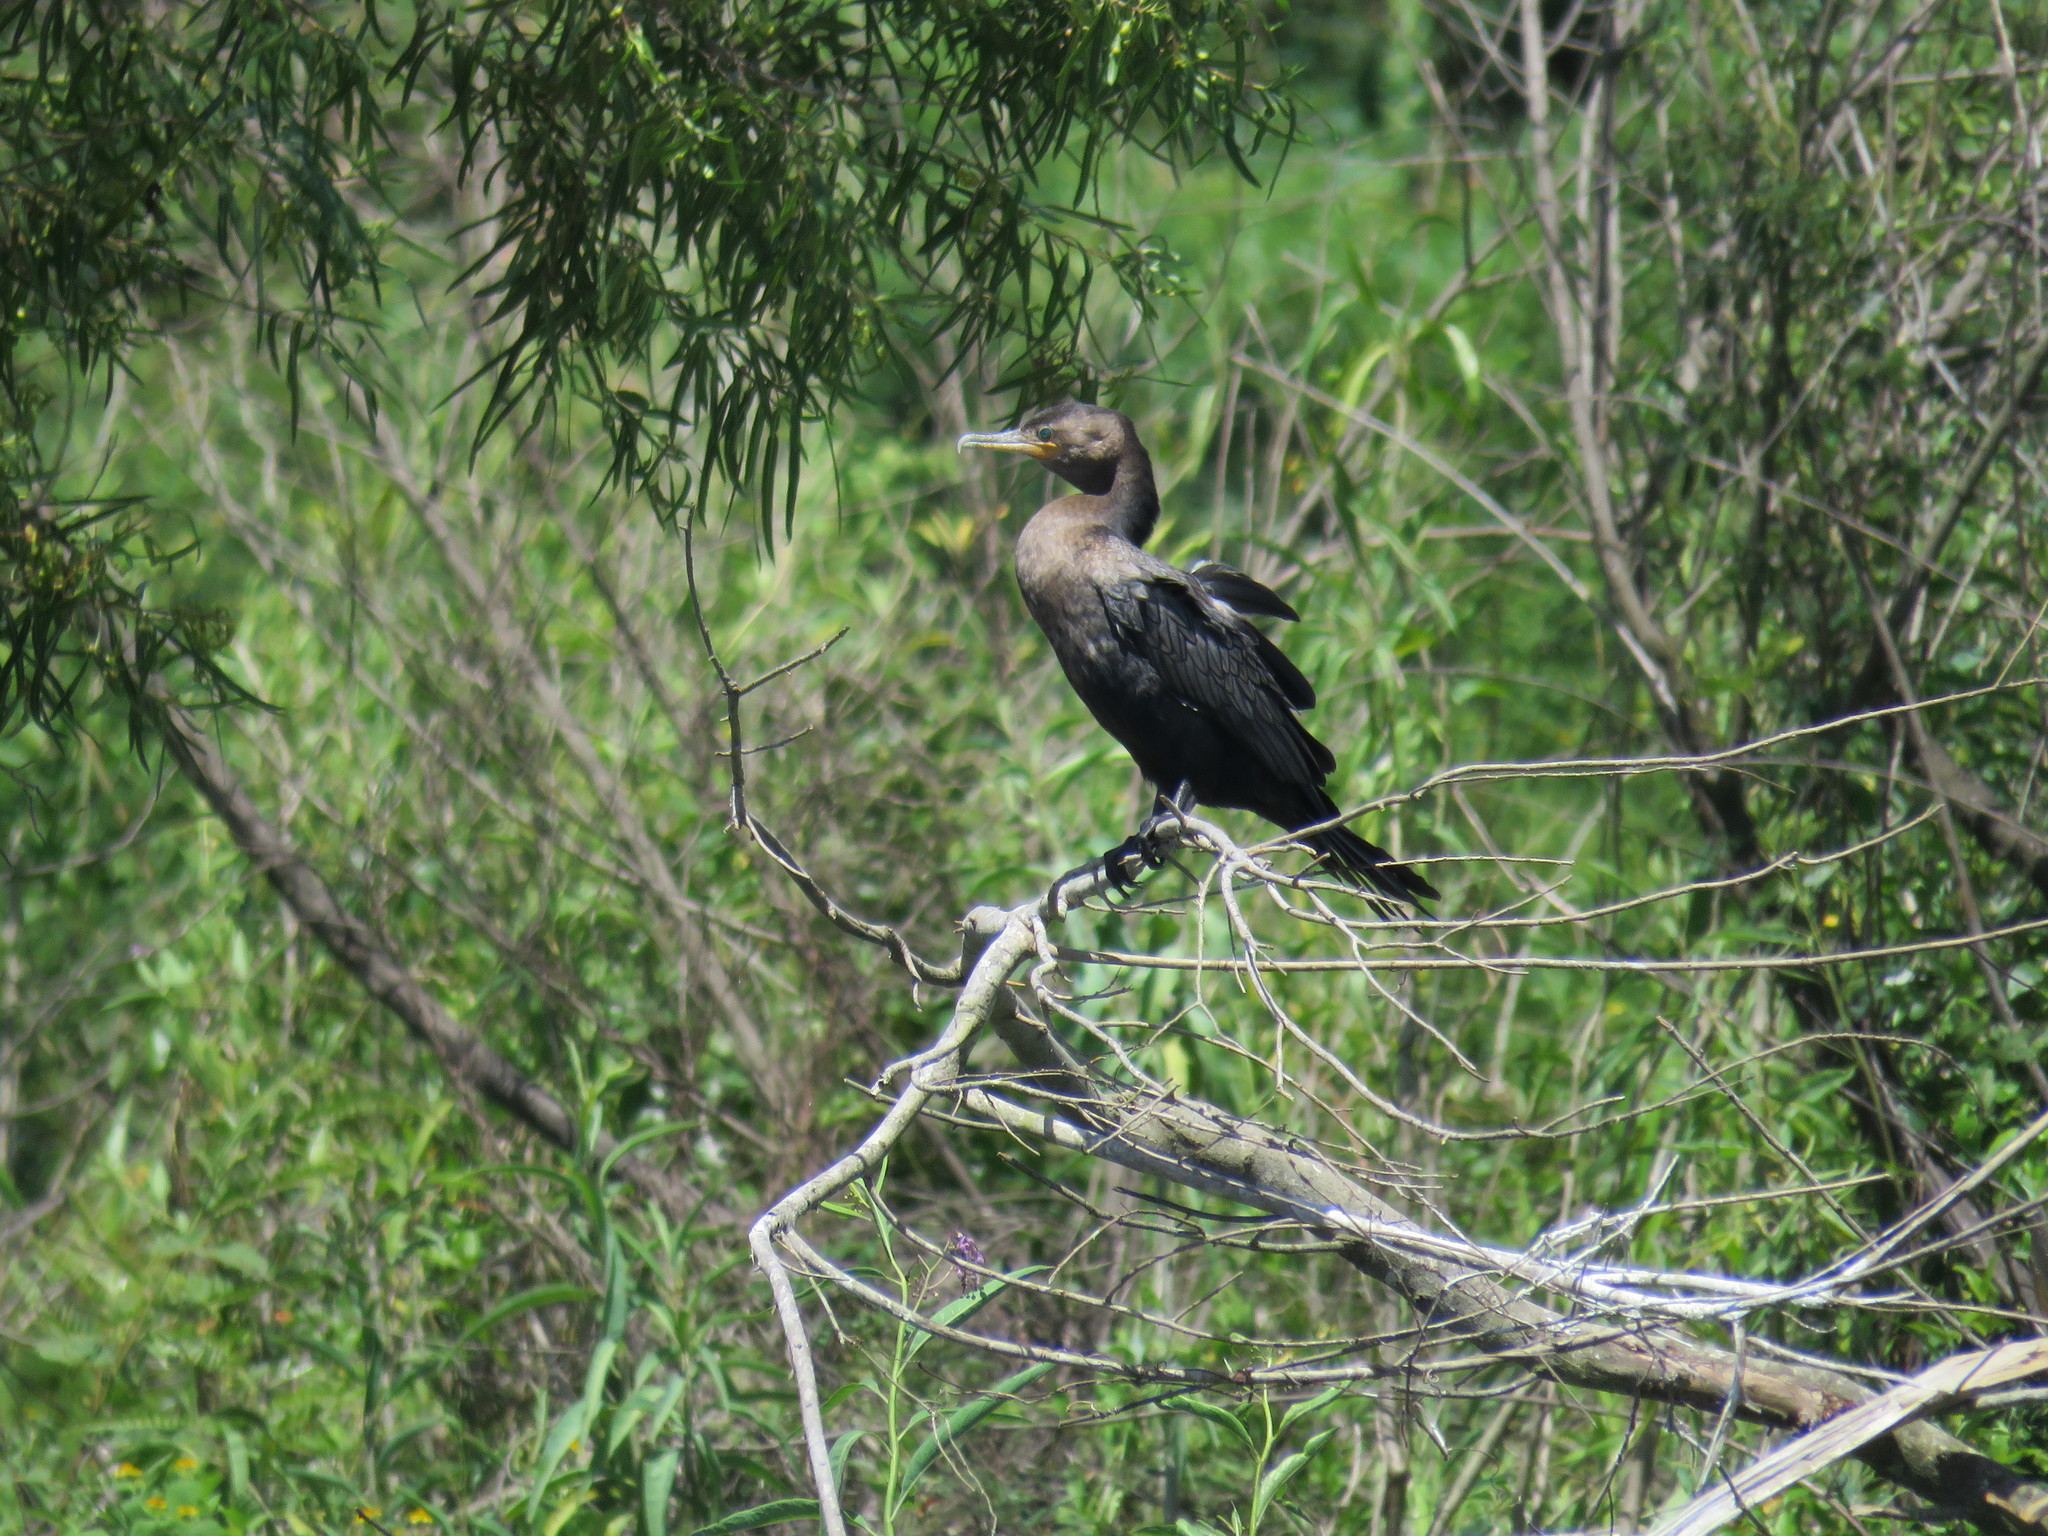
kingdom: Animalia
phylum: Chordata
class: Aves
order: Suliformes
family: Phalacrocoracidae
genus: Phalacrocorax
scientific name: Phalacrocorax brasilianus
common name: Neotropic cormorant
